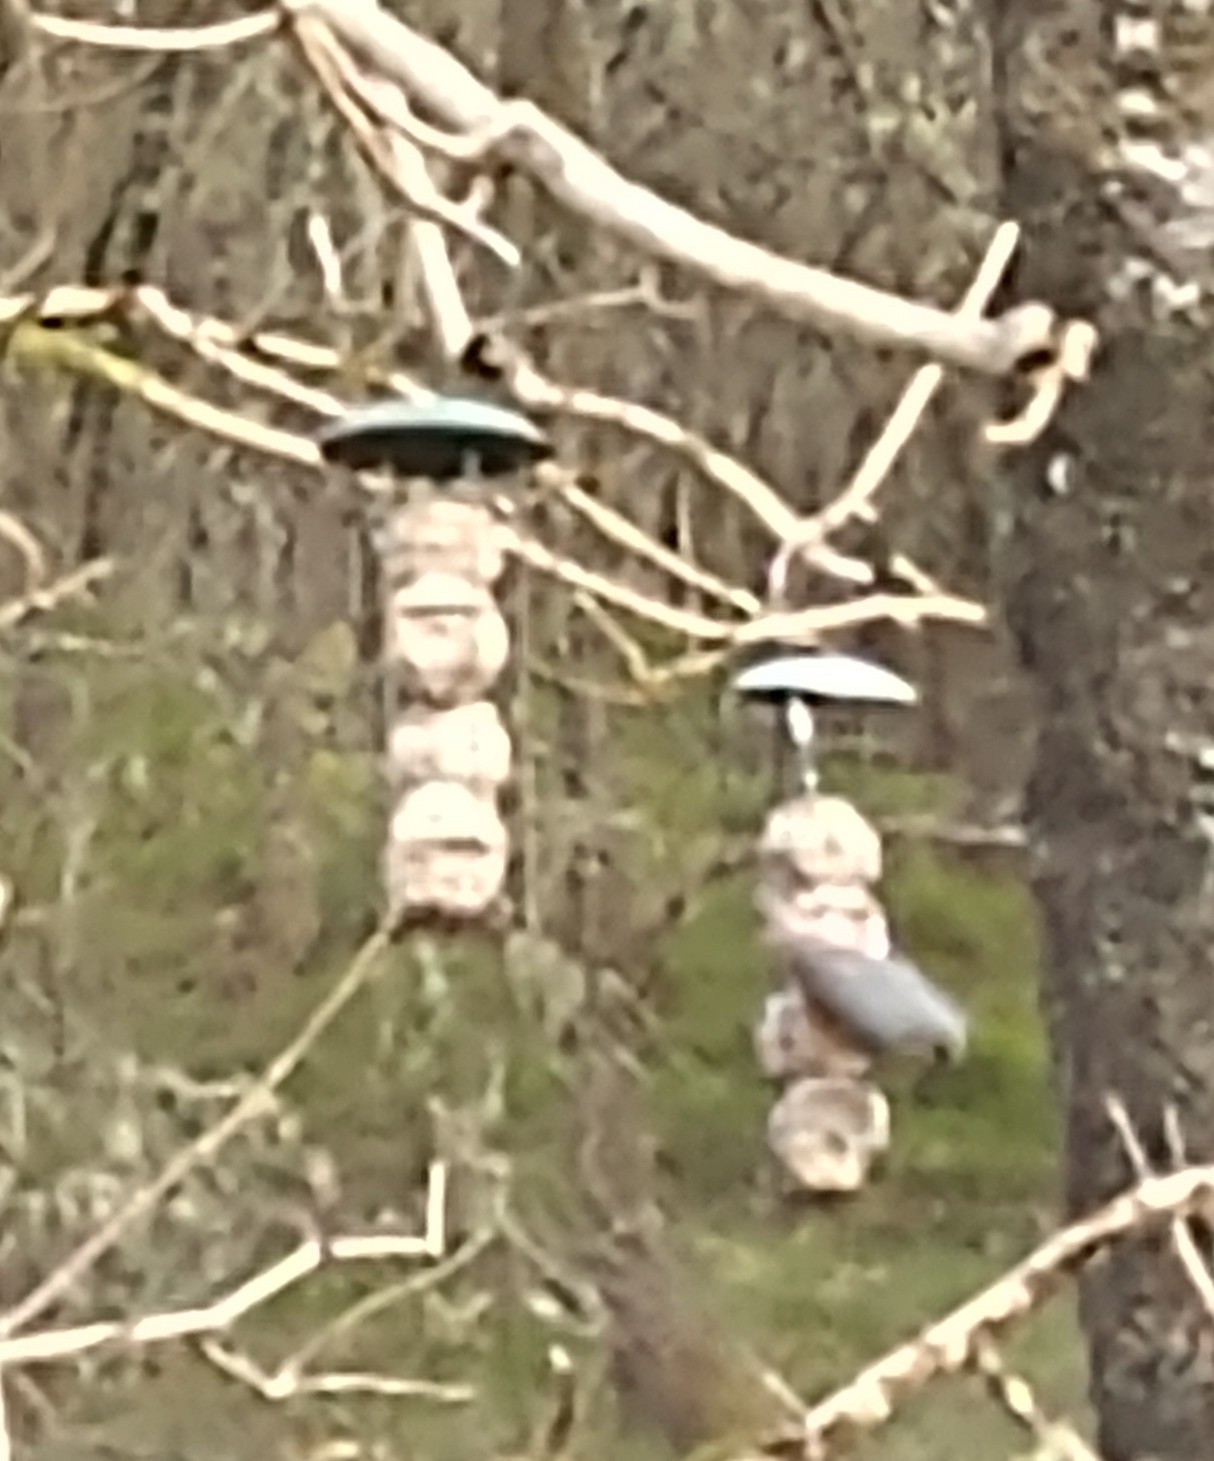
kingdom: Animalia
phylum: Chordata
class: Aves
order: Passeriformes
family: Sittidae
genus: Sitta
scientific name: Sitta europaea
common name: Eurasian nuthatch
